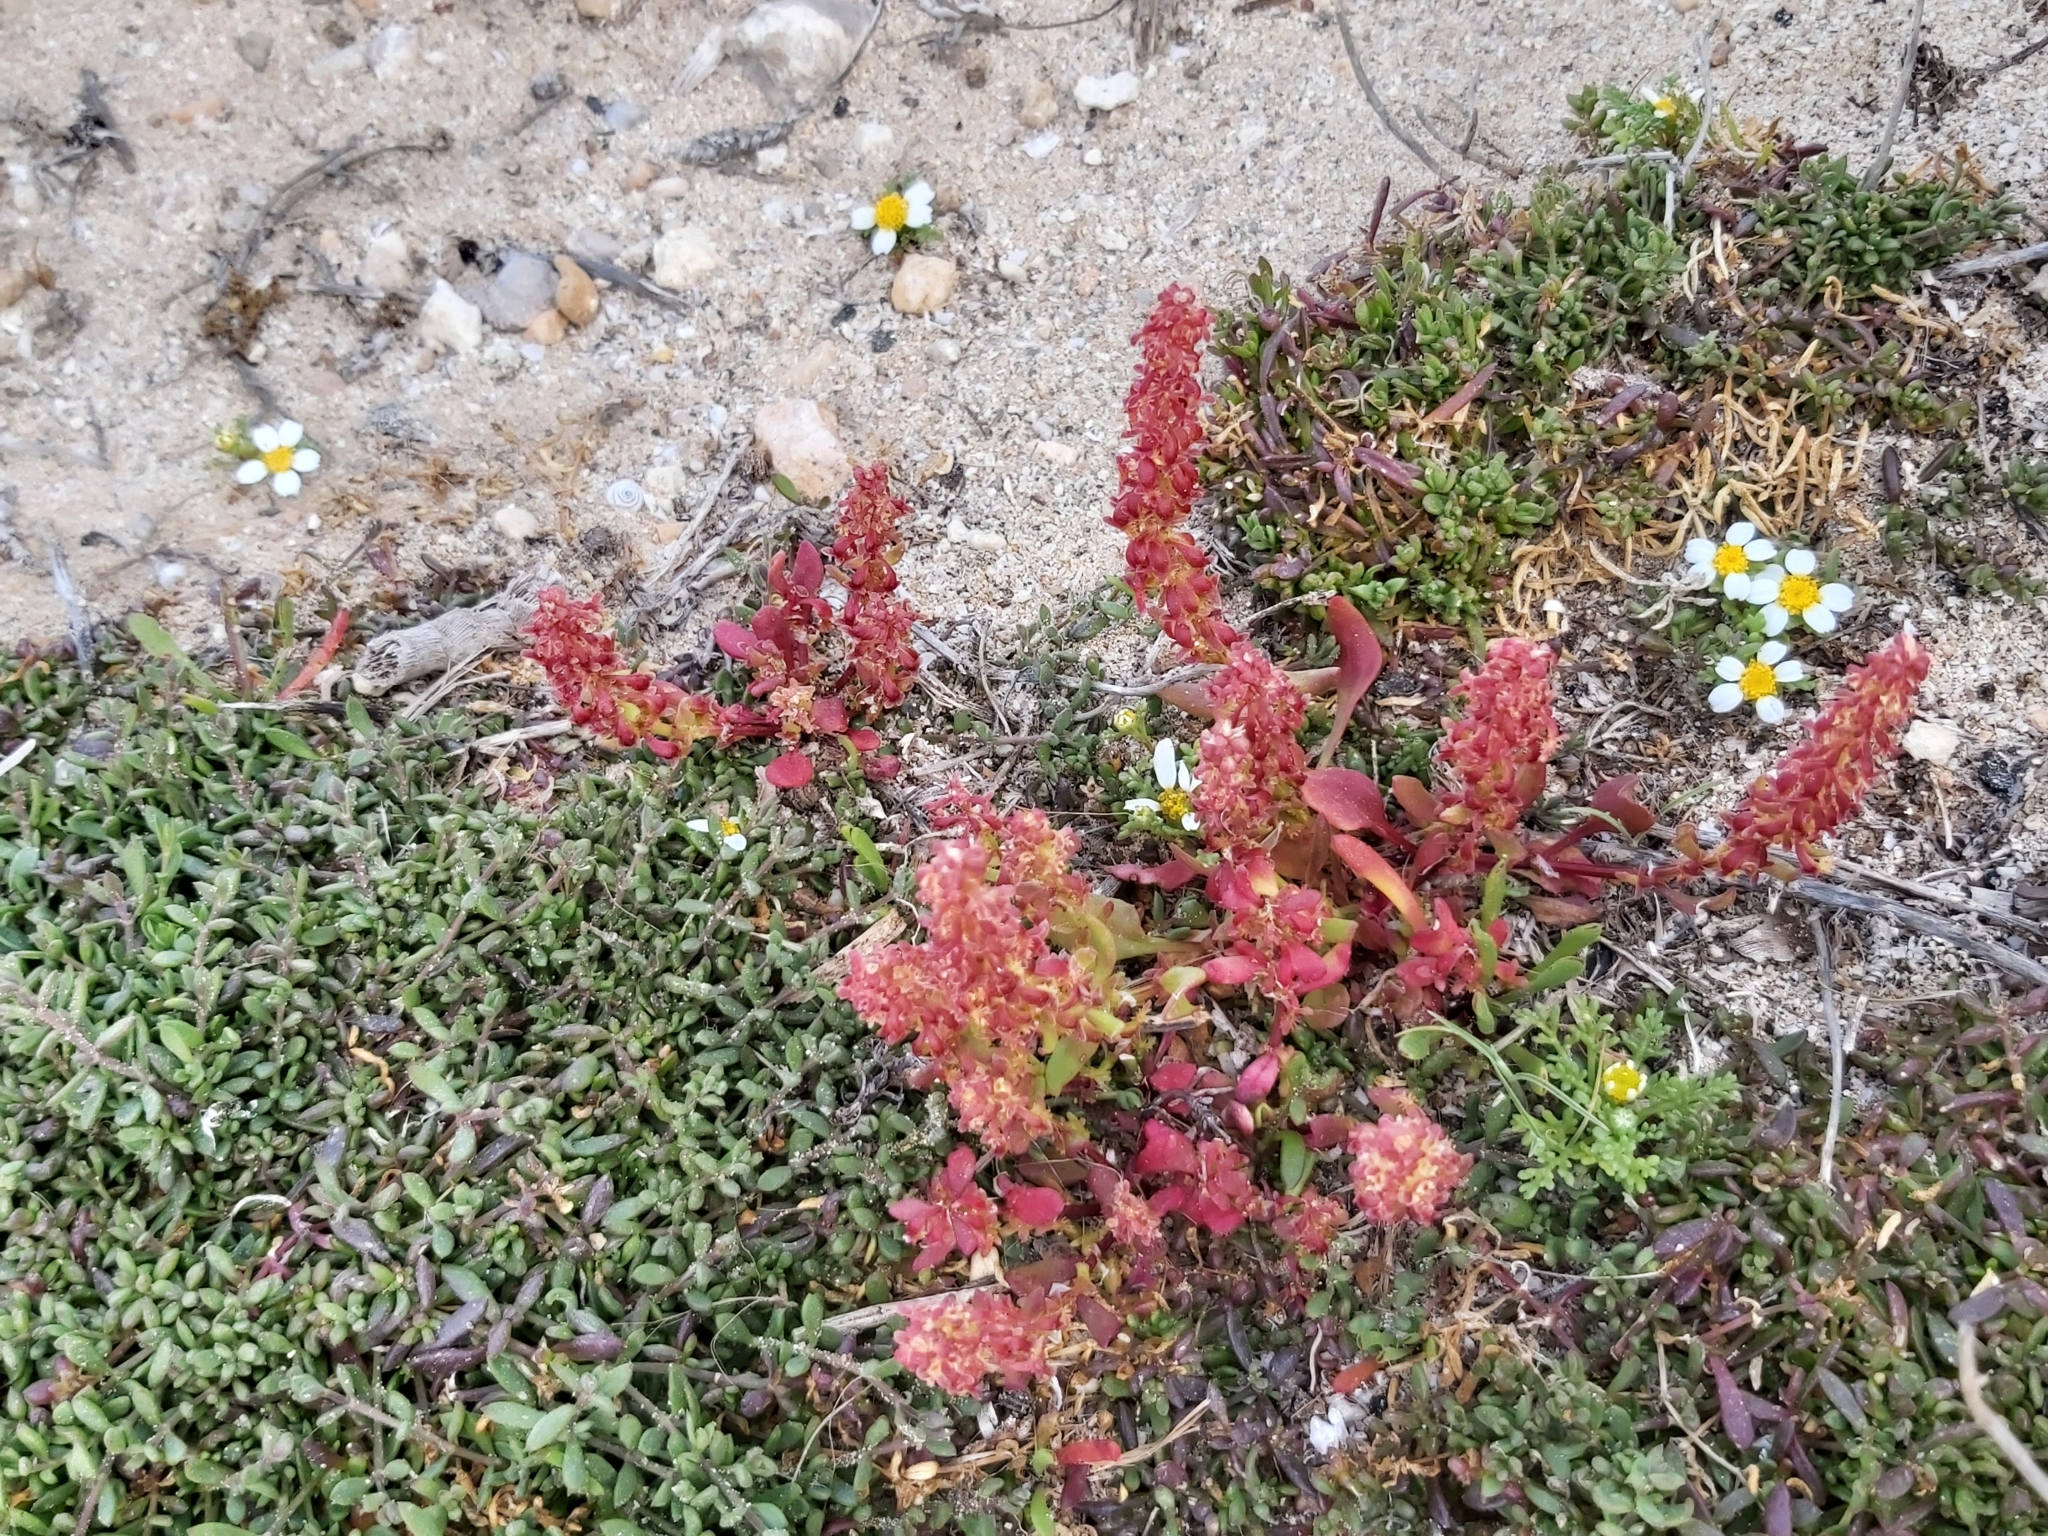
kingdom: Plantae
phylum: Tracheophyta
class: Magnoliopsida
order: Caryophyllales
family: Polygonaceae
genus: Rumex
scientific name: Rumex bucephalophorus
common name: Red dock
